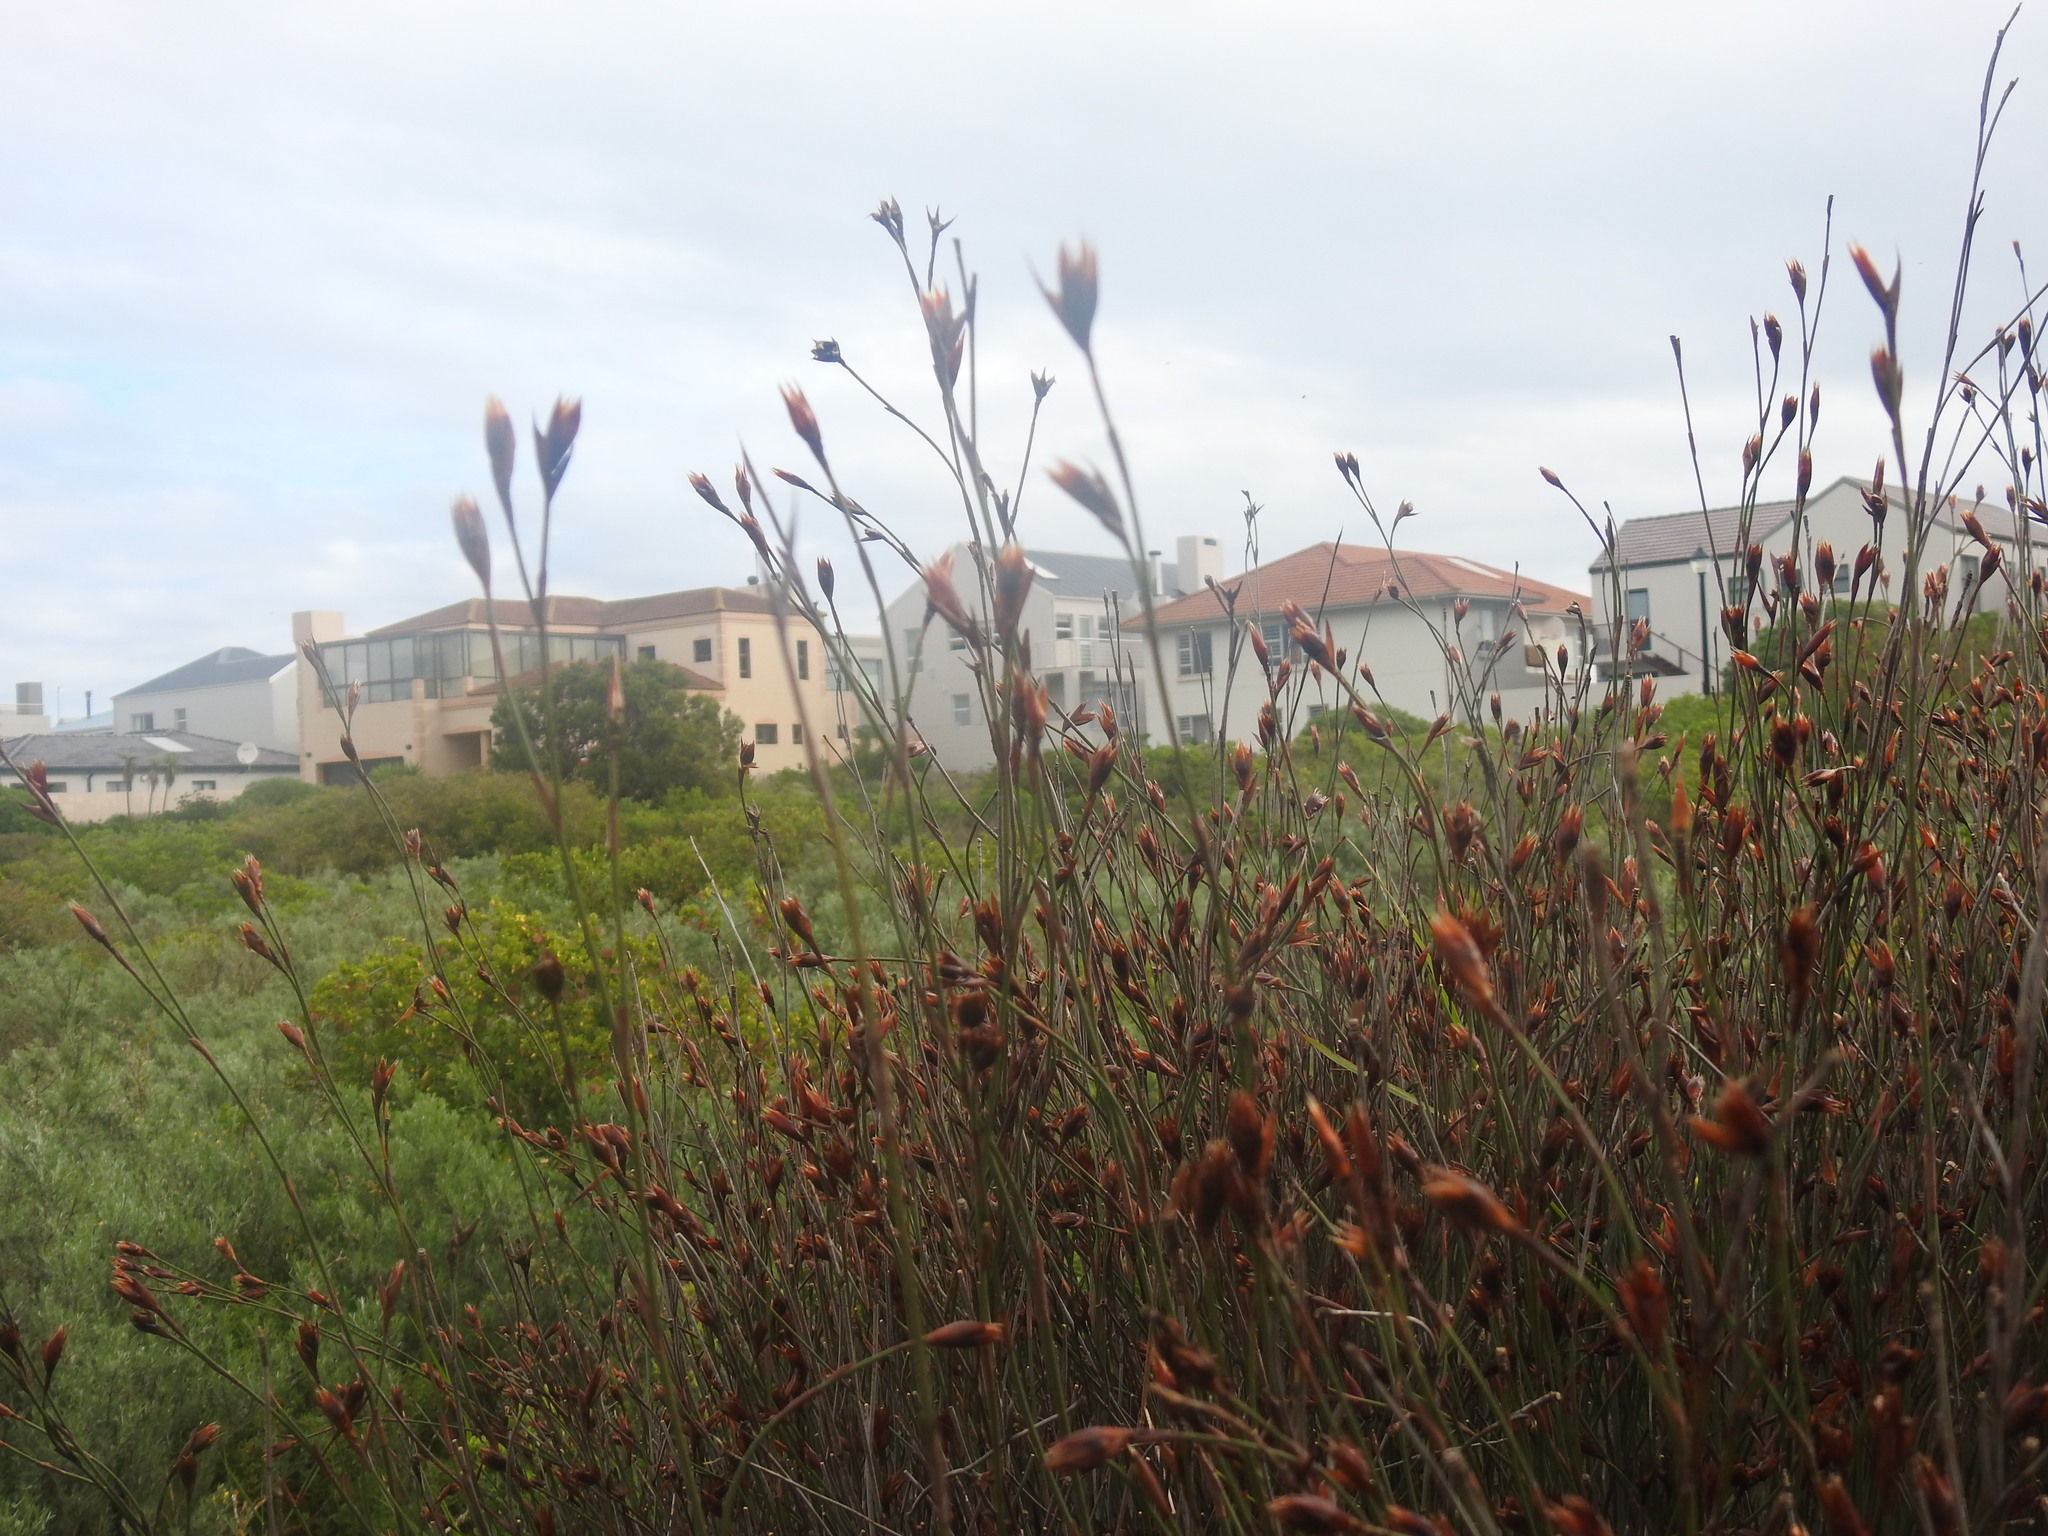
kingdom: Plantae
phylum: Tracheophyta
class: Liliopsida
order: Poales
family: Restionaceae
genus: Willdenowia
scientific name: Willdenowia incurvata
